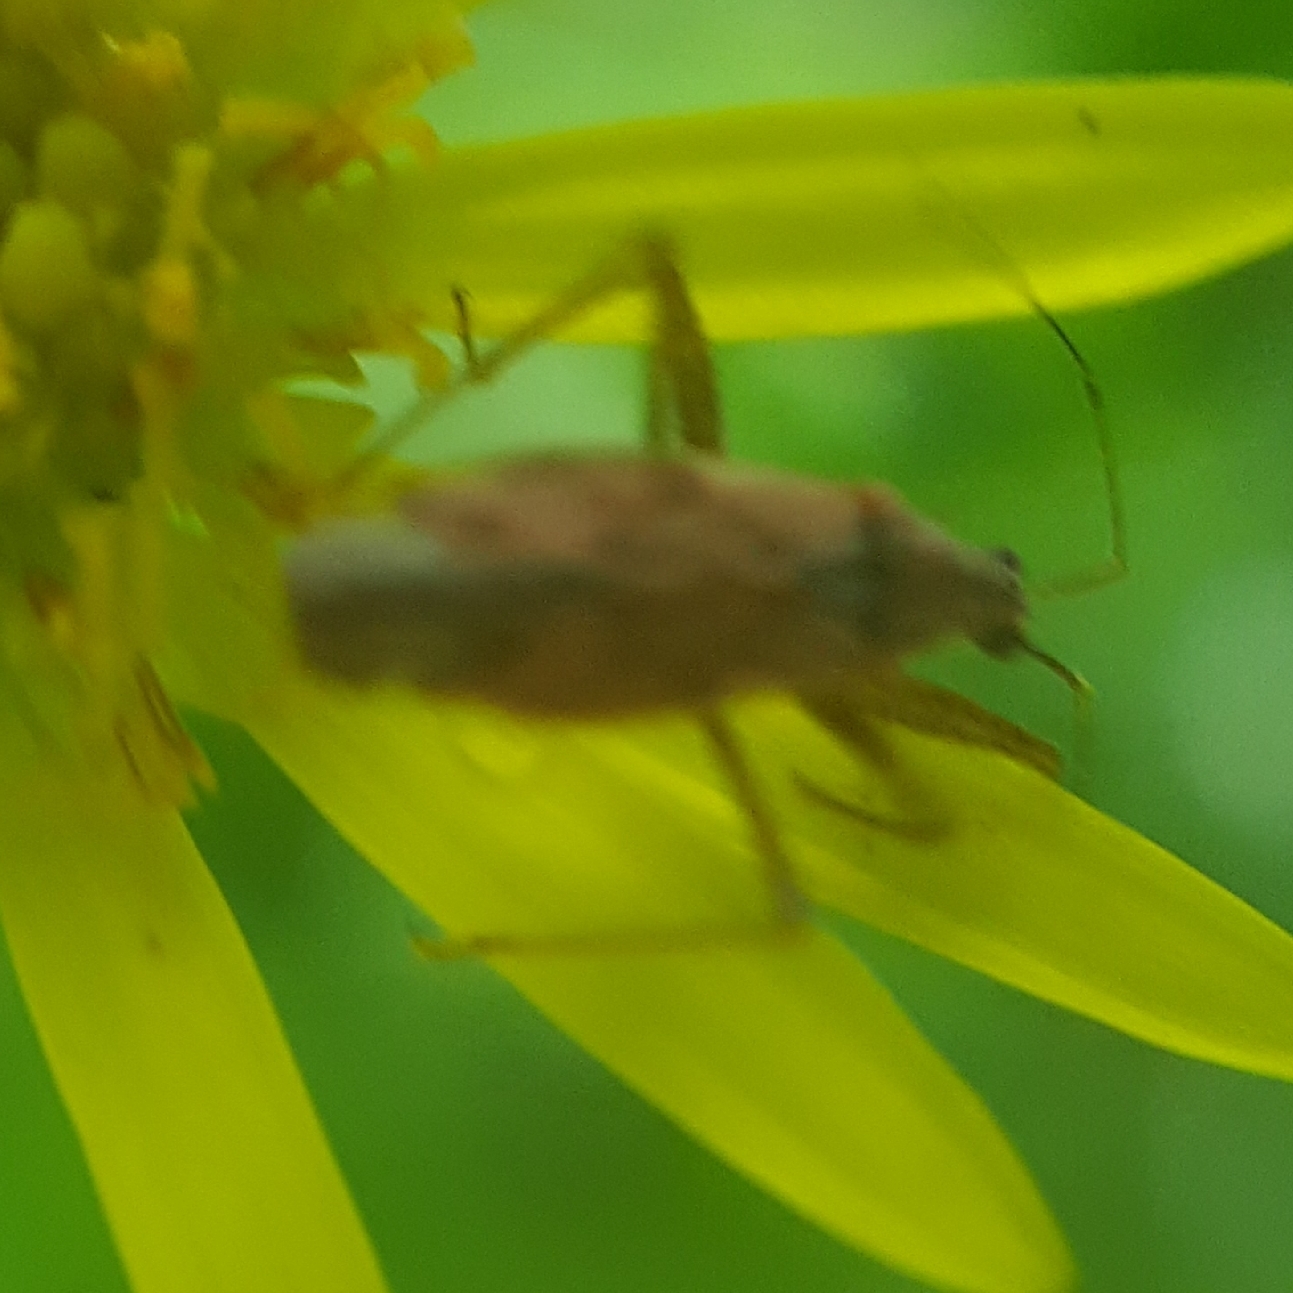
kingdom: Animalia
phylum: Arthropoda
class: Insecta
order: Hemiptera
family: Nabidae
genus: Nabis
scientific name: Nabis
